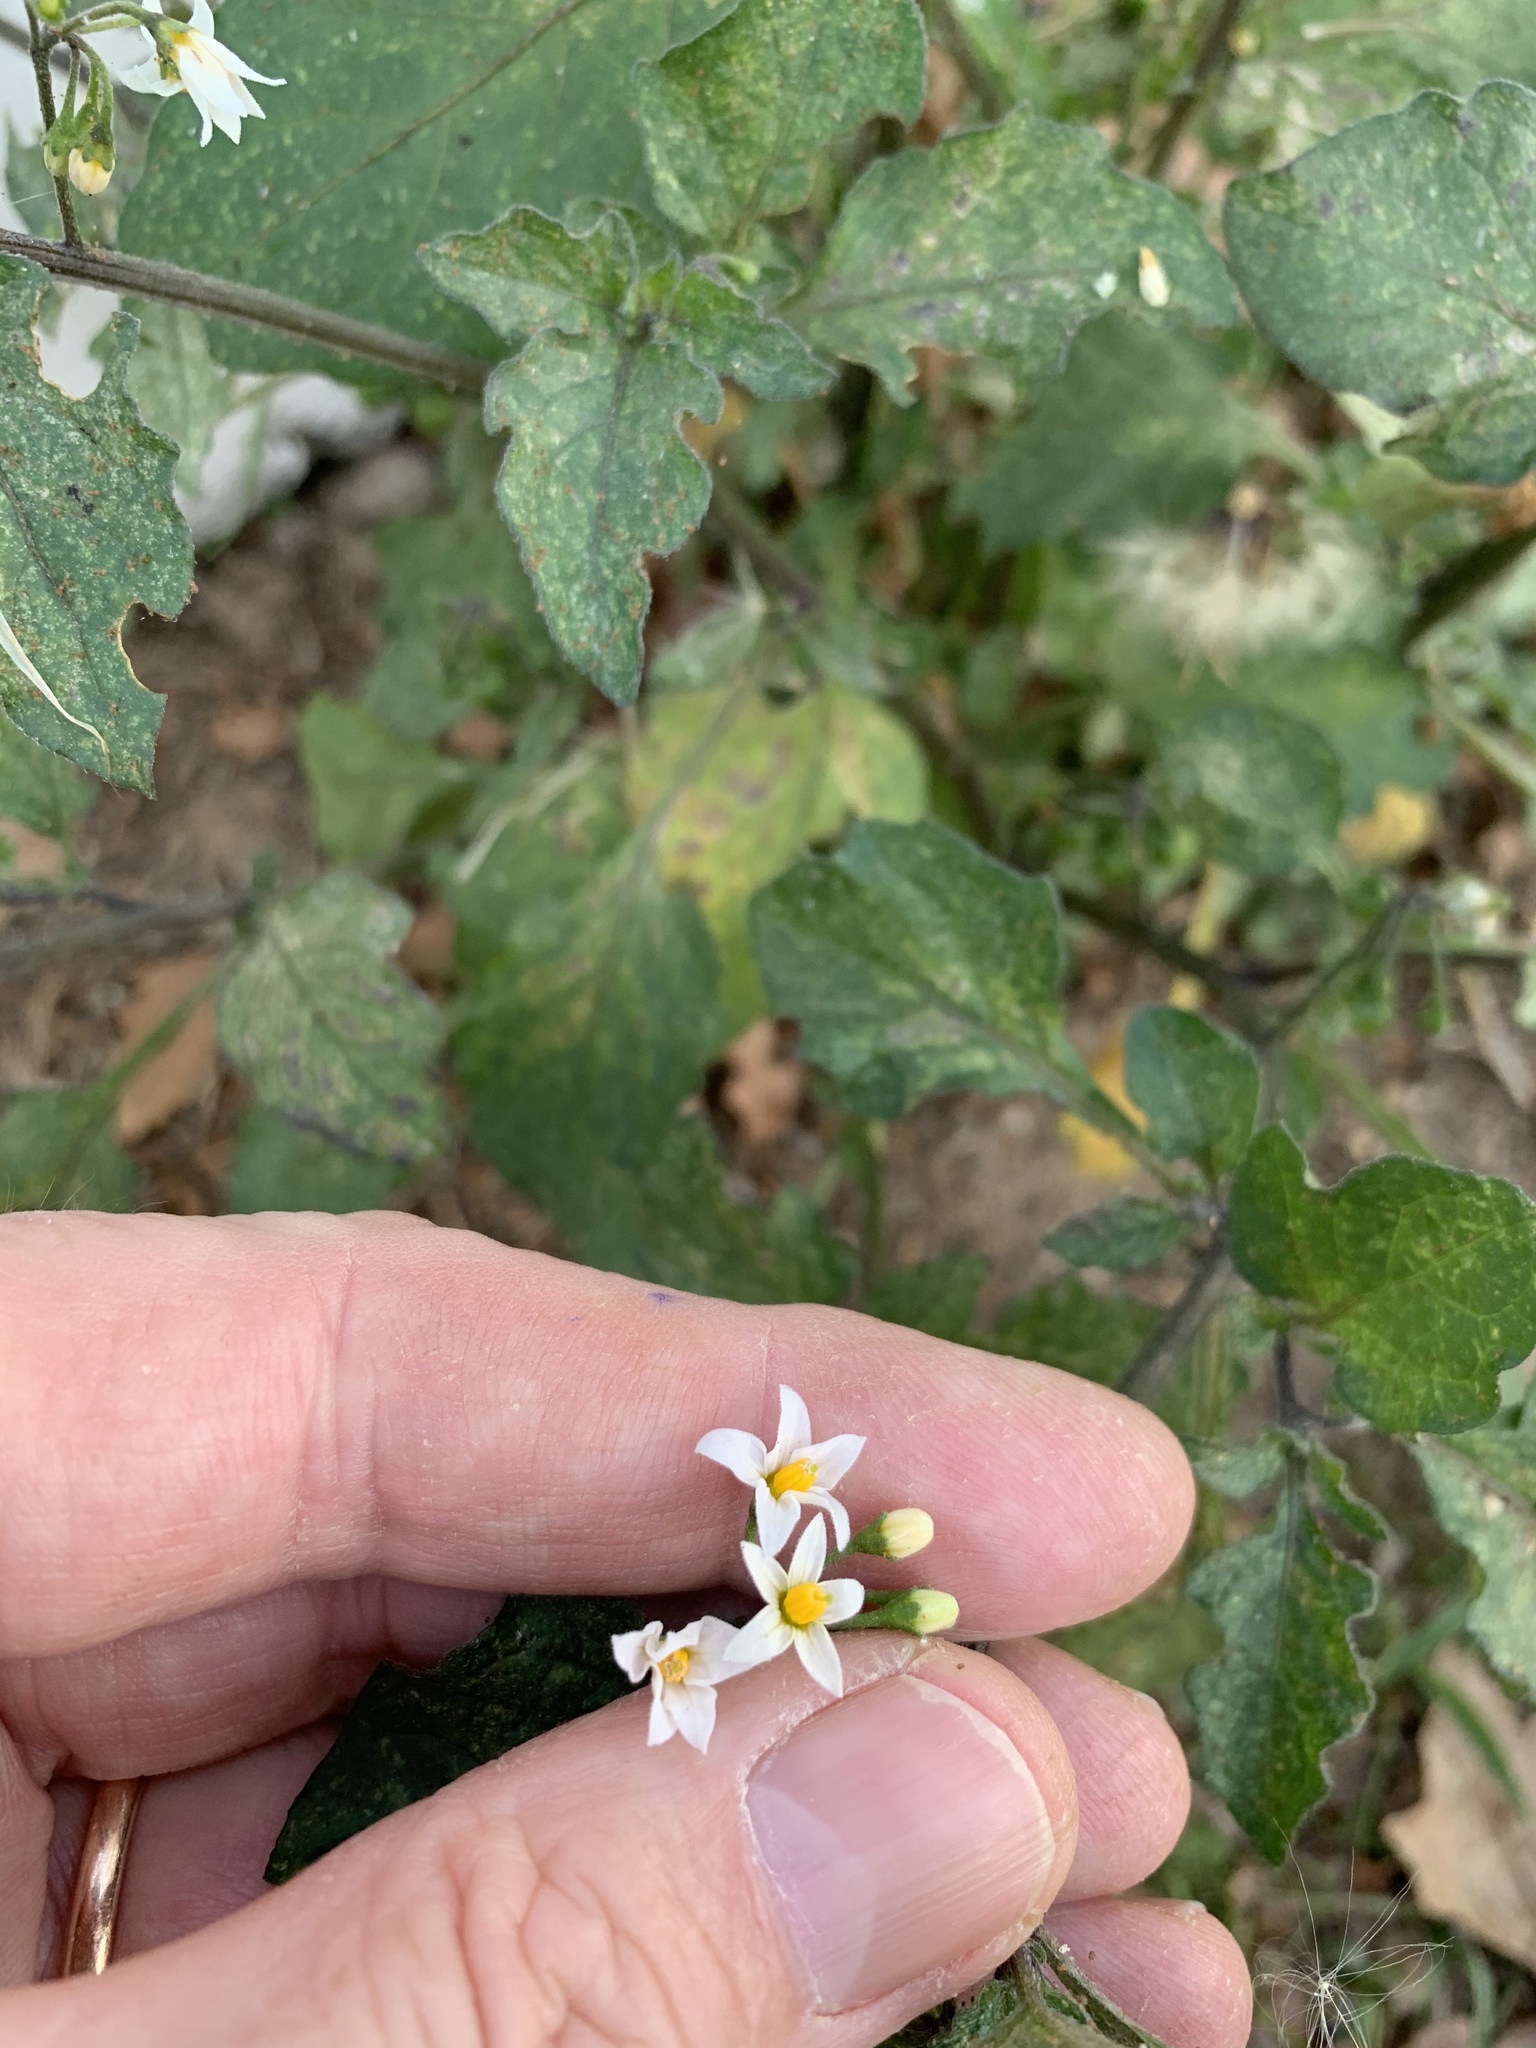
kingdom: Plantae
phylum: Tracheophyta
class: Magnoliopsida
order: Solanales
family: Solanaceae
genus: Solanum
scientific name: Solanum nigrum
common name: Black nightshade
